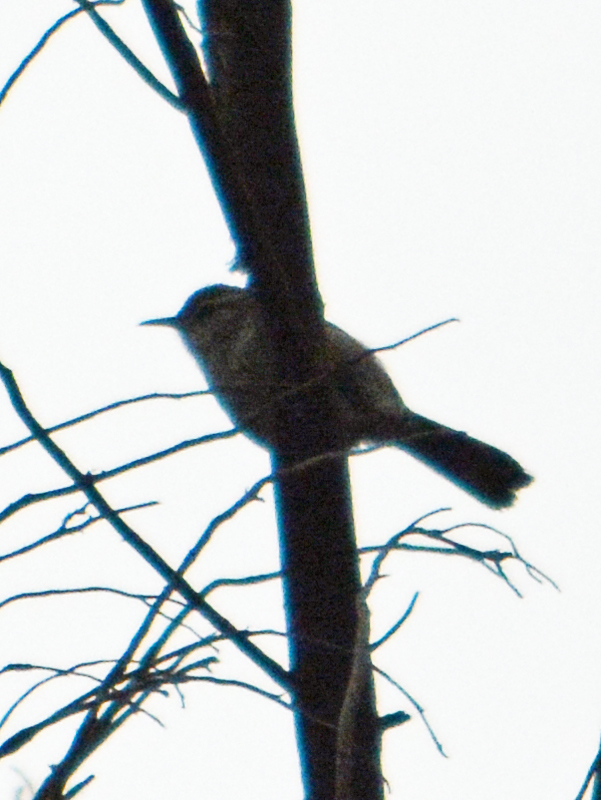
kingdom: Animalia
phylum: Chordata
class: Aves
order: Passeriformes
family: Troglodytidae
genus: Thryomanes
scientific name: Thryomanes bewickii
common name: Bewick's wren
